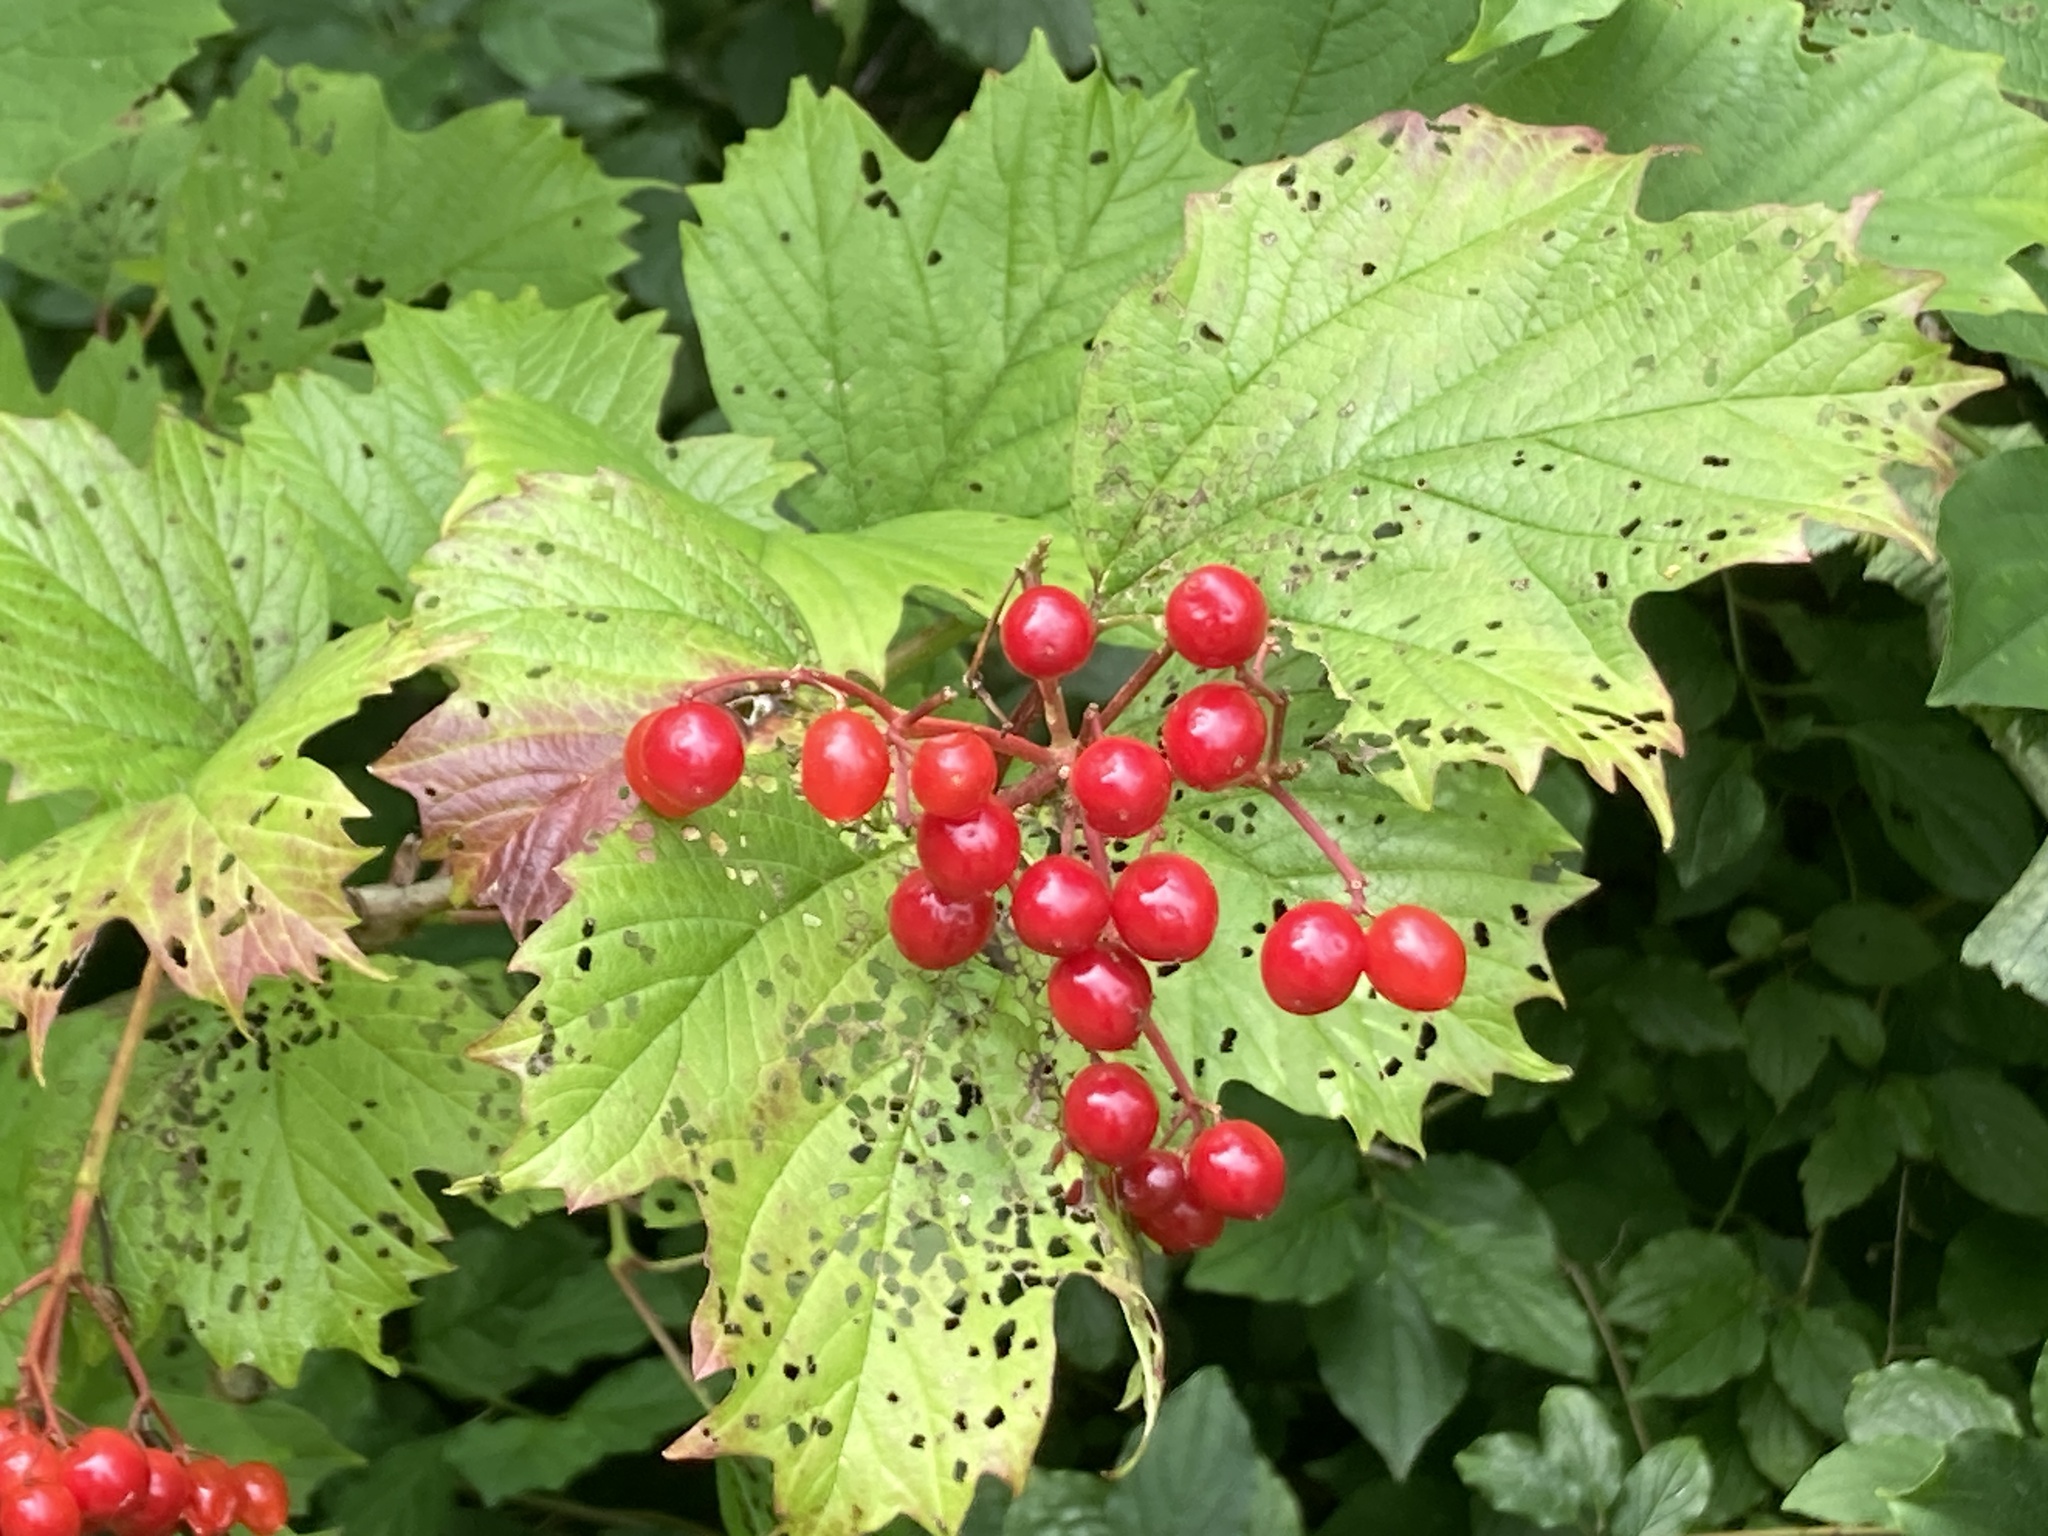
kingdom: Plantae
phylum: Tracheophyta
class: Magnoliopsida
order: Dipsacales
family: Viburnaceae
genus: Viburnum
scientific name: Viburnum opulus
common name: Guelder-rose
